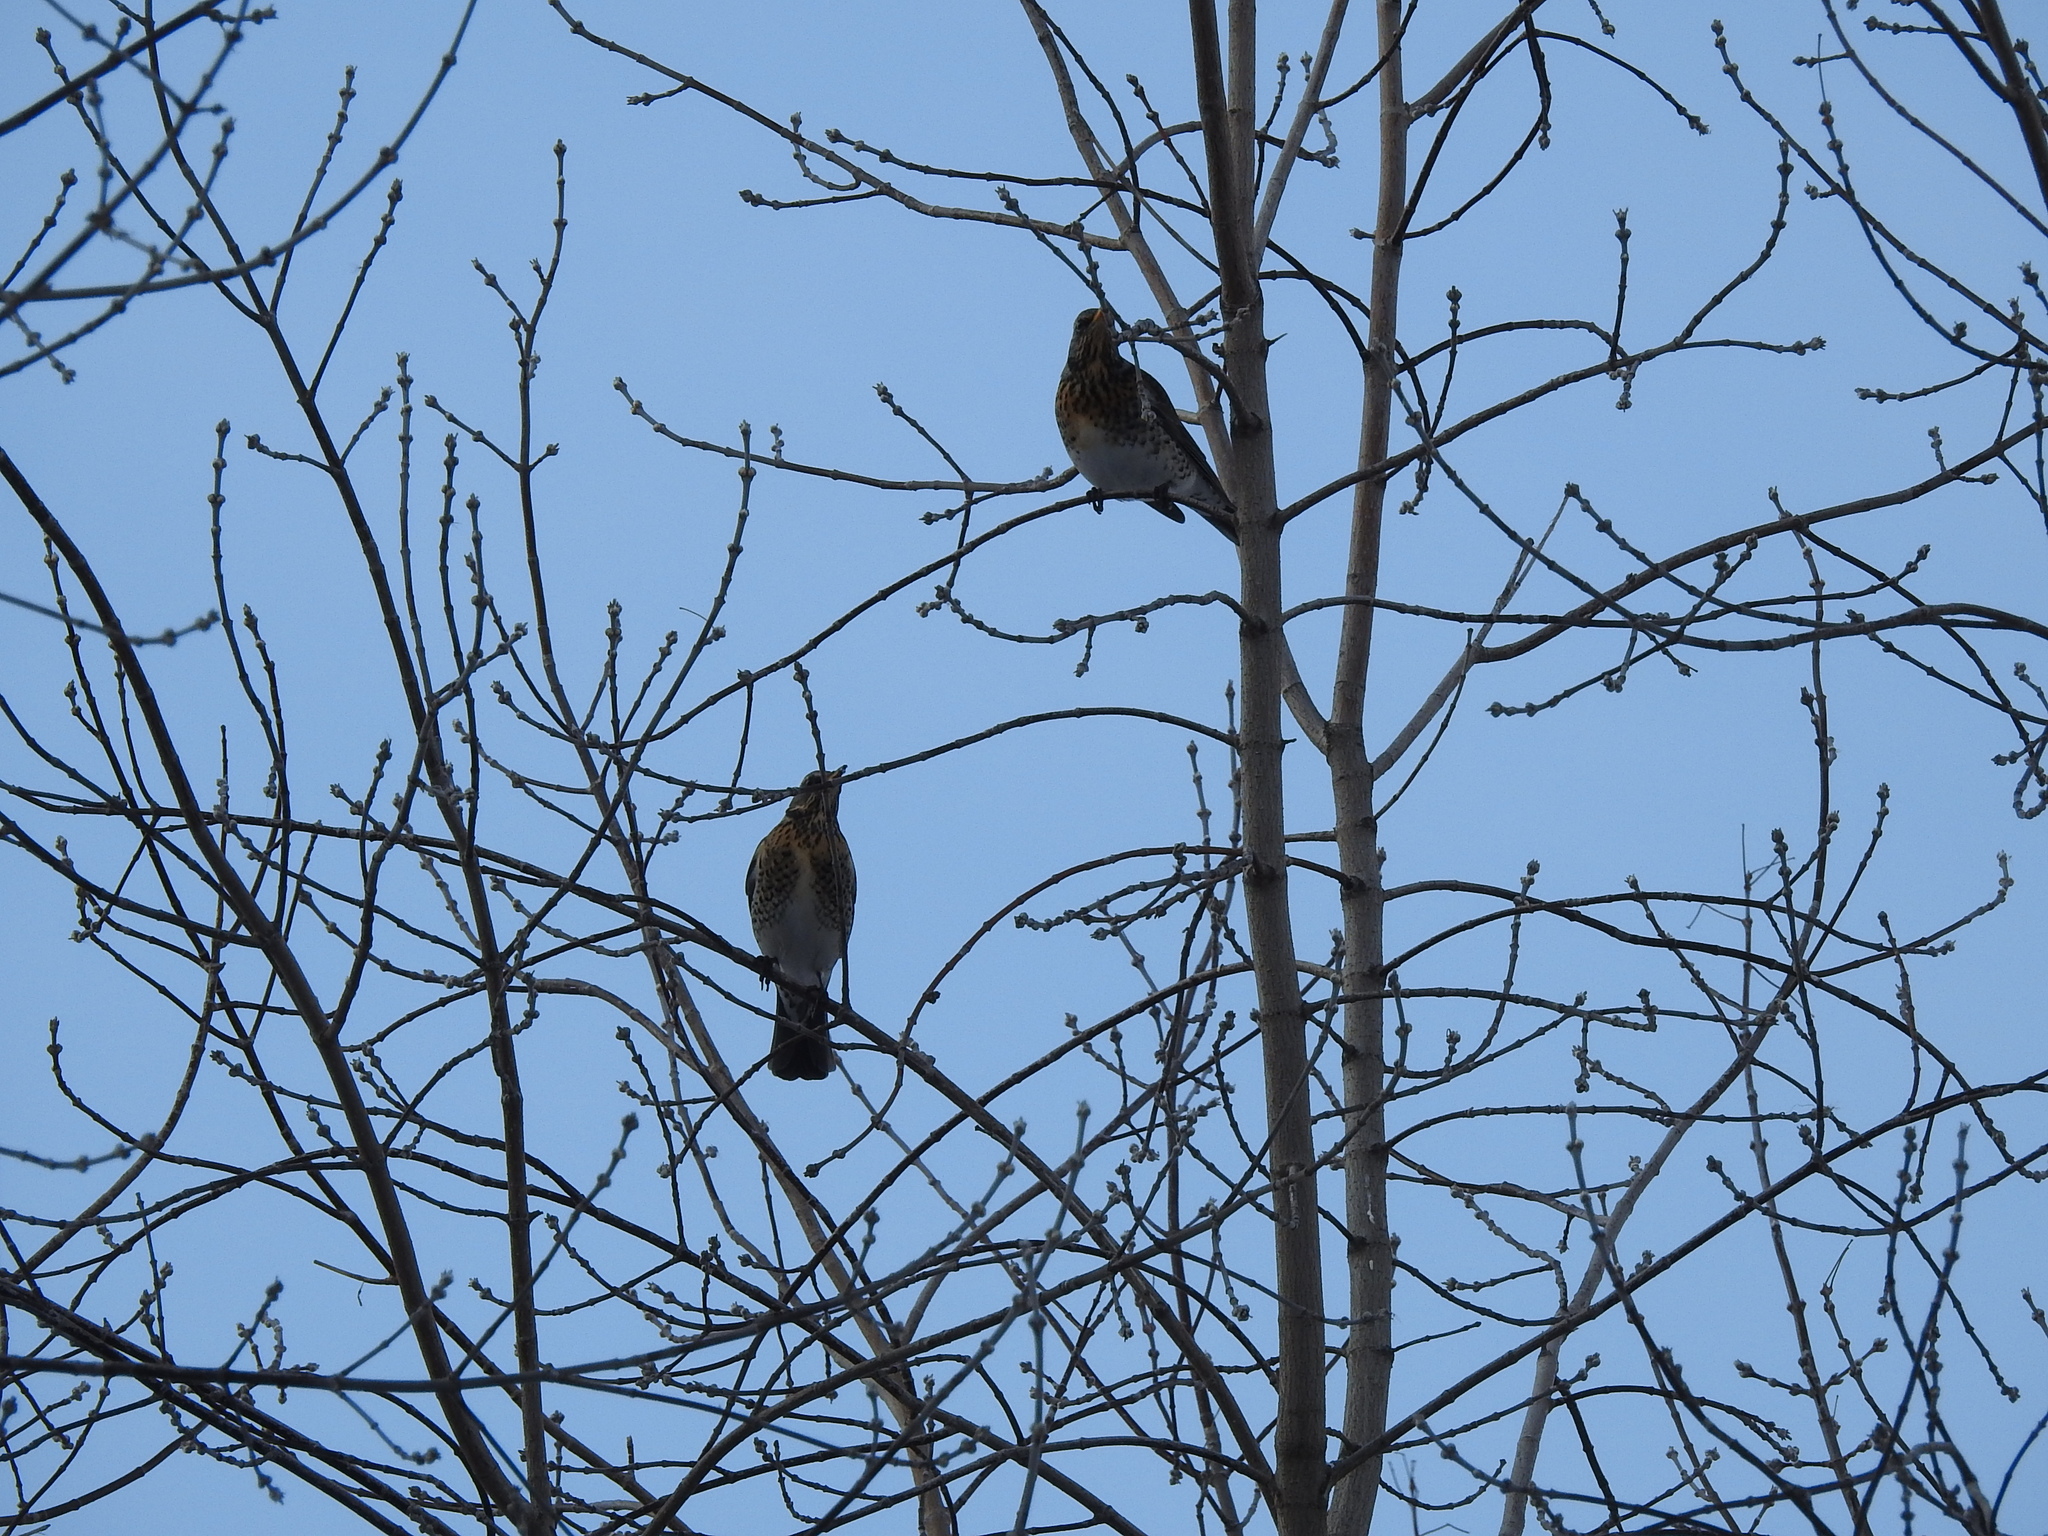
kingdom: Animalia
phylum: Chordata
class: Aves
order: Passeriformes
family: Turdidae
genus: Turdus
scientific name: Turdus pilaris
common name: Fieldfare
